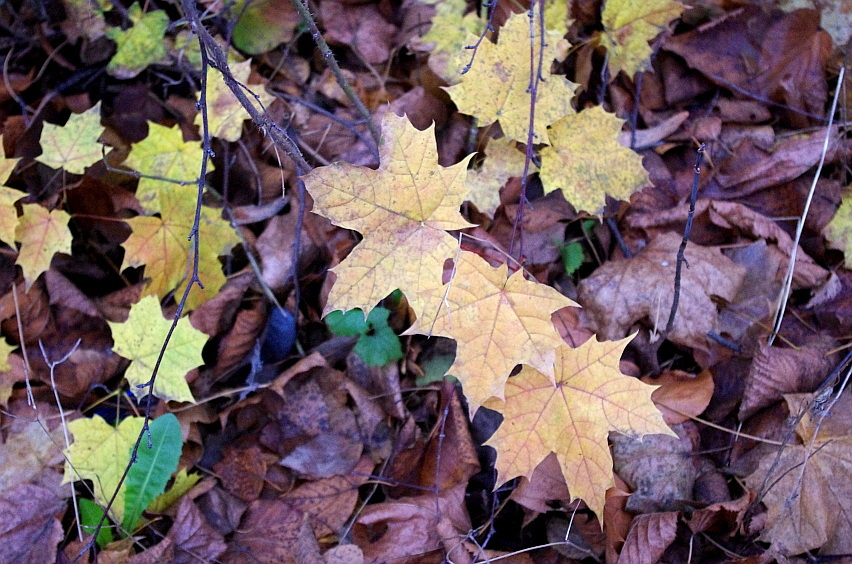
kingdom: Plantae
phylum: Tracheophyta
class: Magnoliopsida
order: Sapindales
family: Sapindaceae
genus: Acer
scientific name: Acer platanoides
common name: Norway maple
